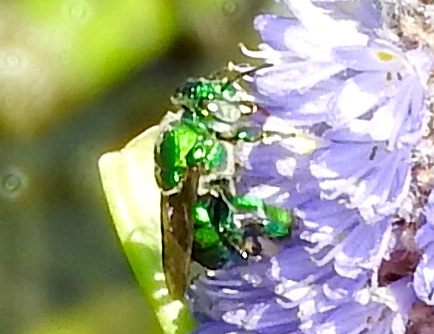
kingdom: Animalia
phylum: Arthropoda
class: Insecta
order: Hymenoptera
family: Apidae
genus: Euglossa
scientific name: Euglossa
